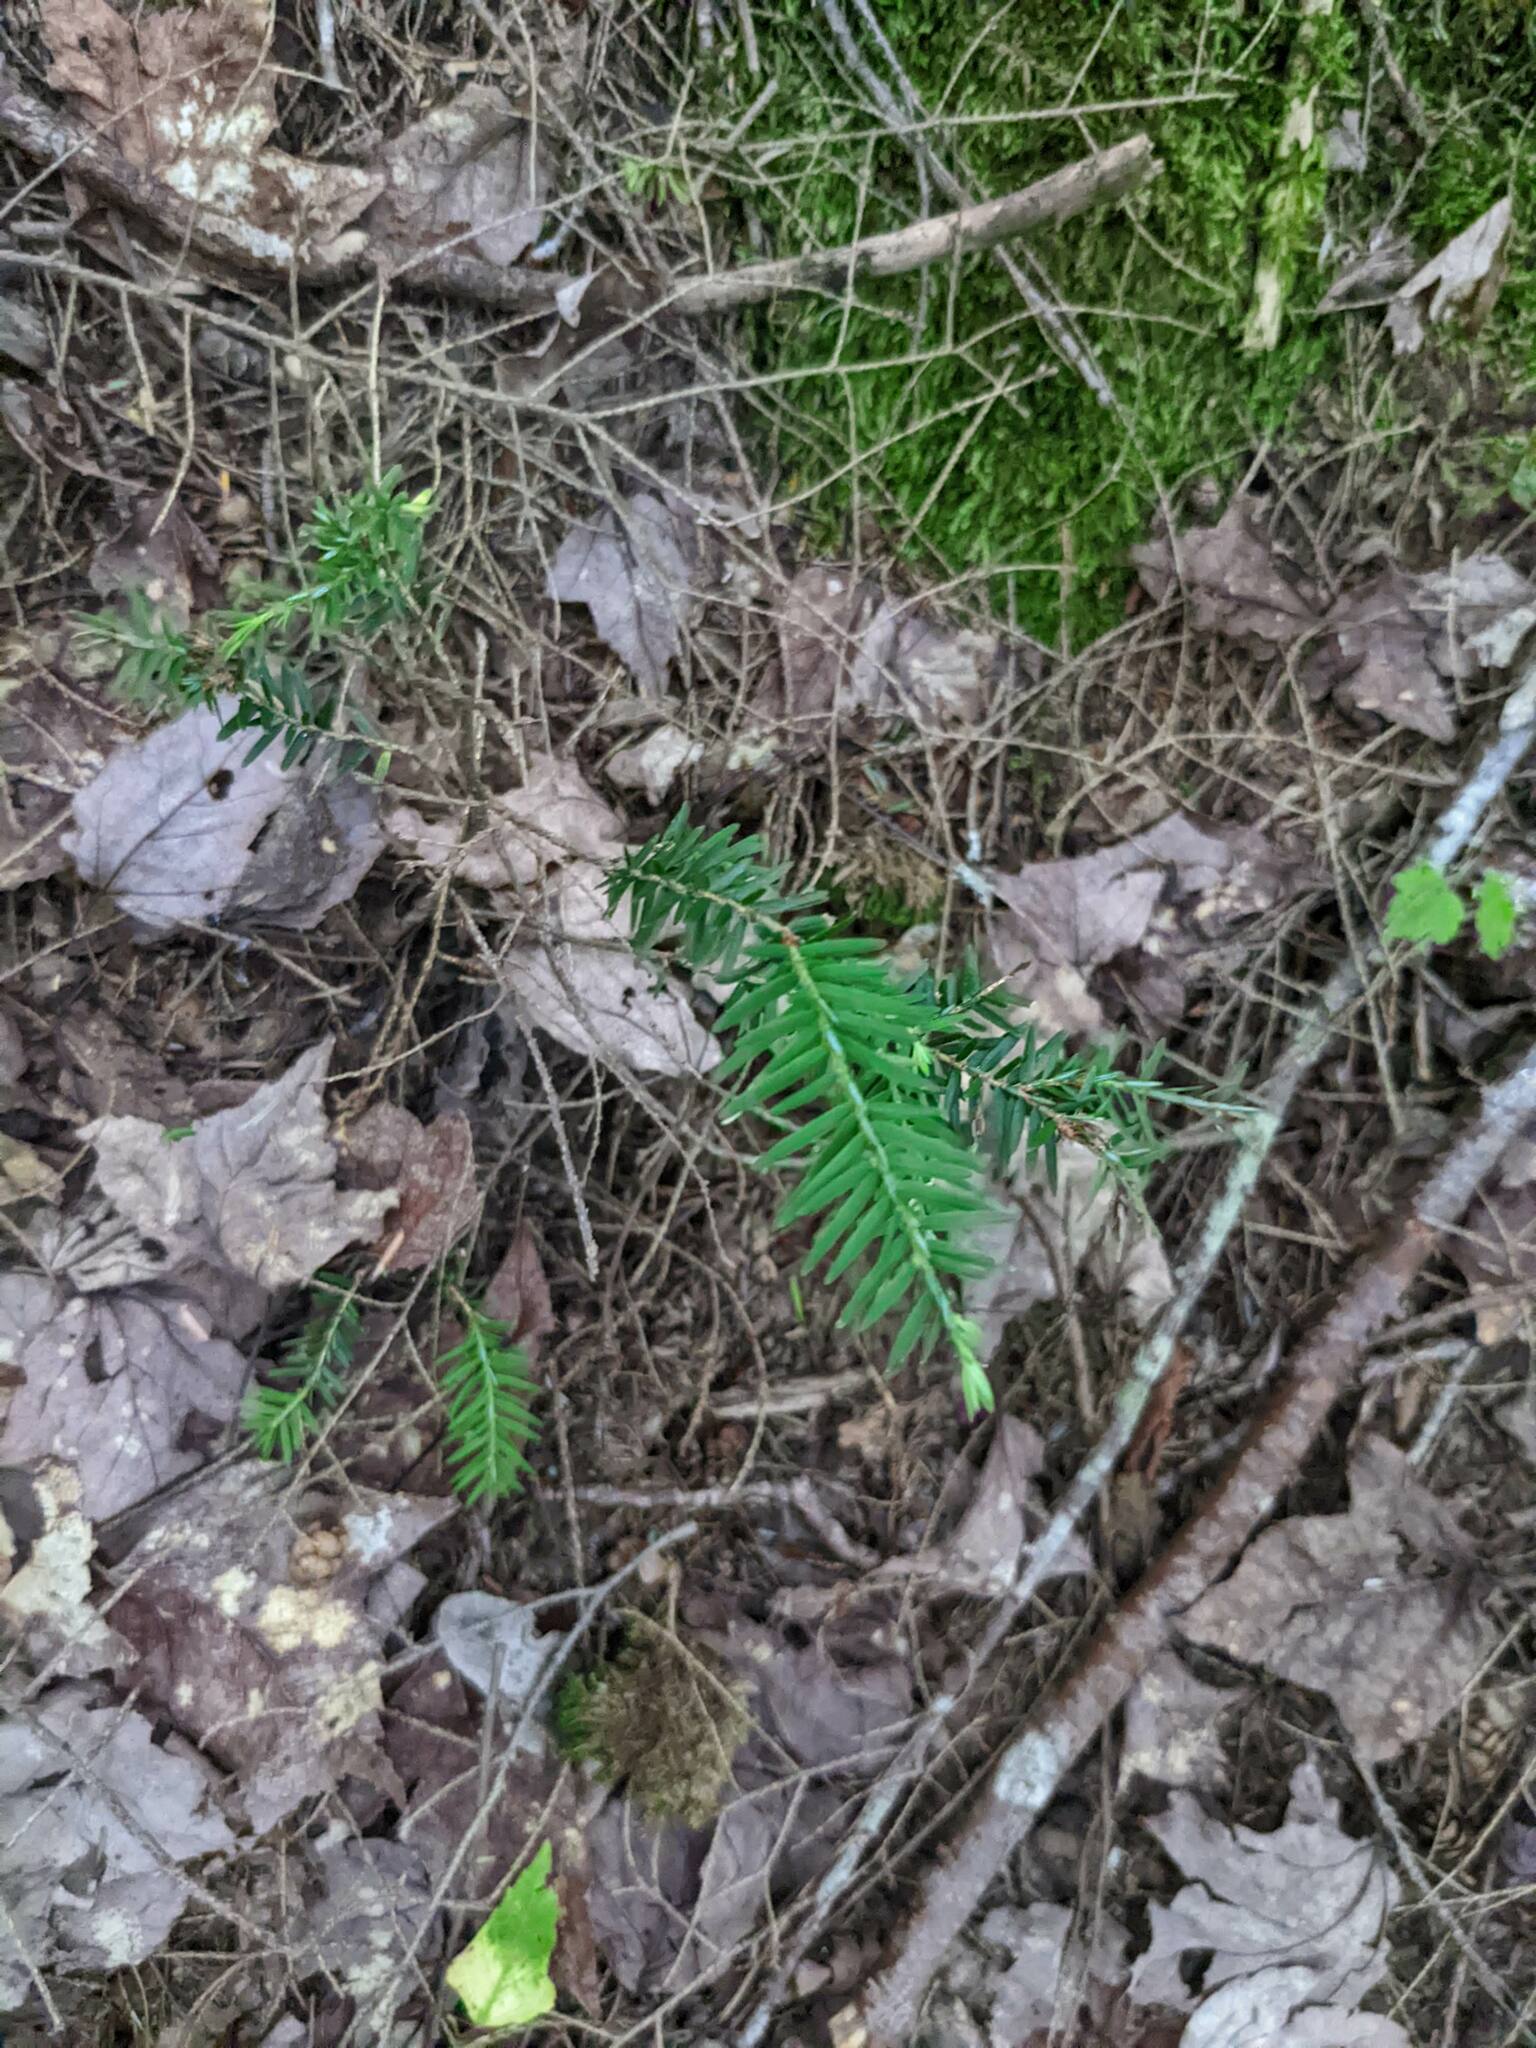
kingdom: Plantae
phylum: Tracheophyta
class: Pinopsida
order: Pinales
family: Pinaceae
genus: Tsuga
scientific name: Tsuga canadensis
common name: Eastern hemlock
